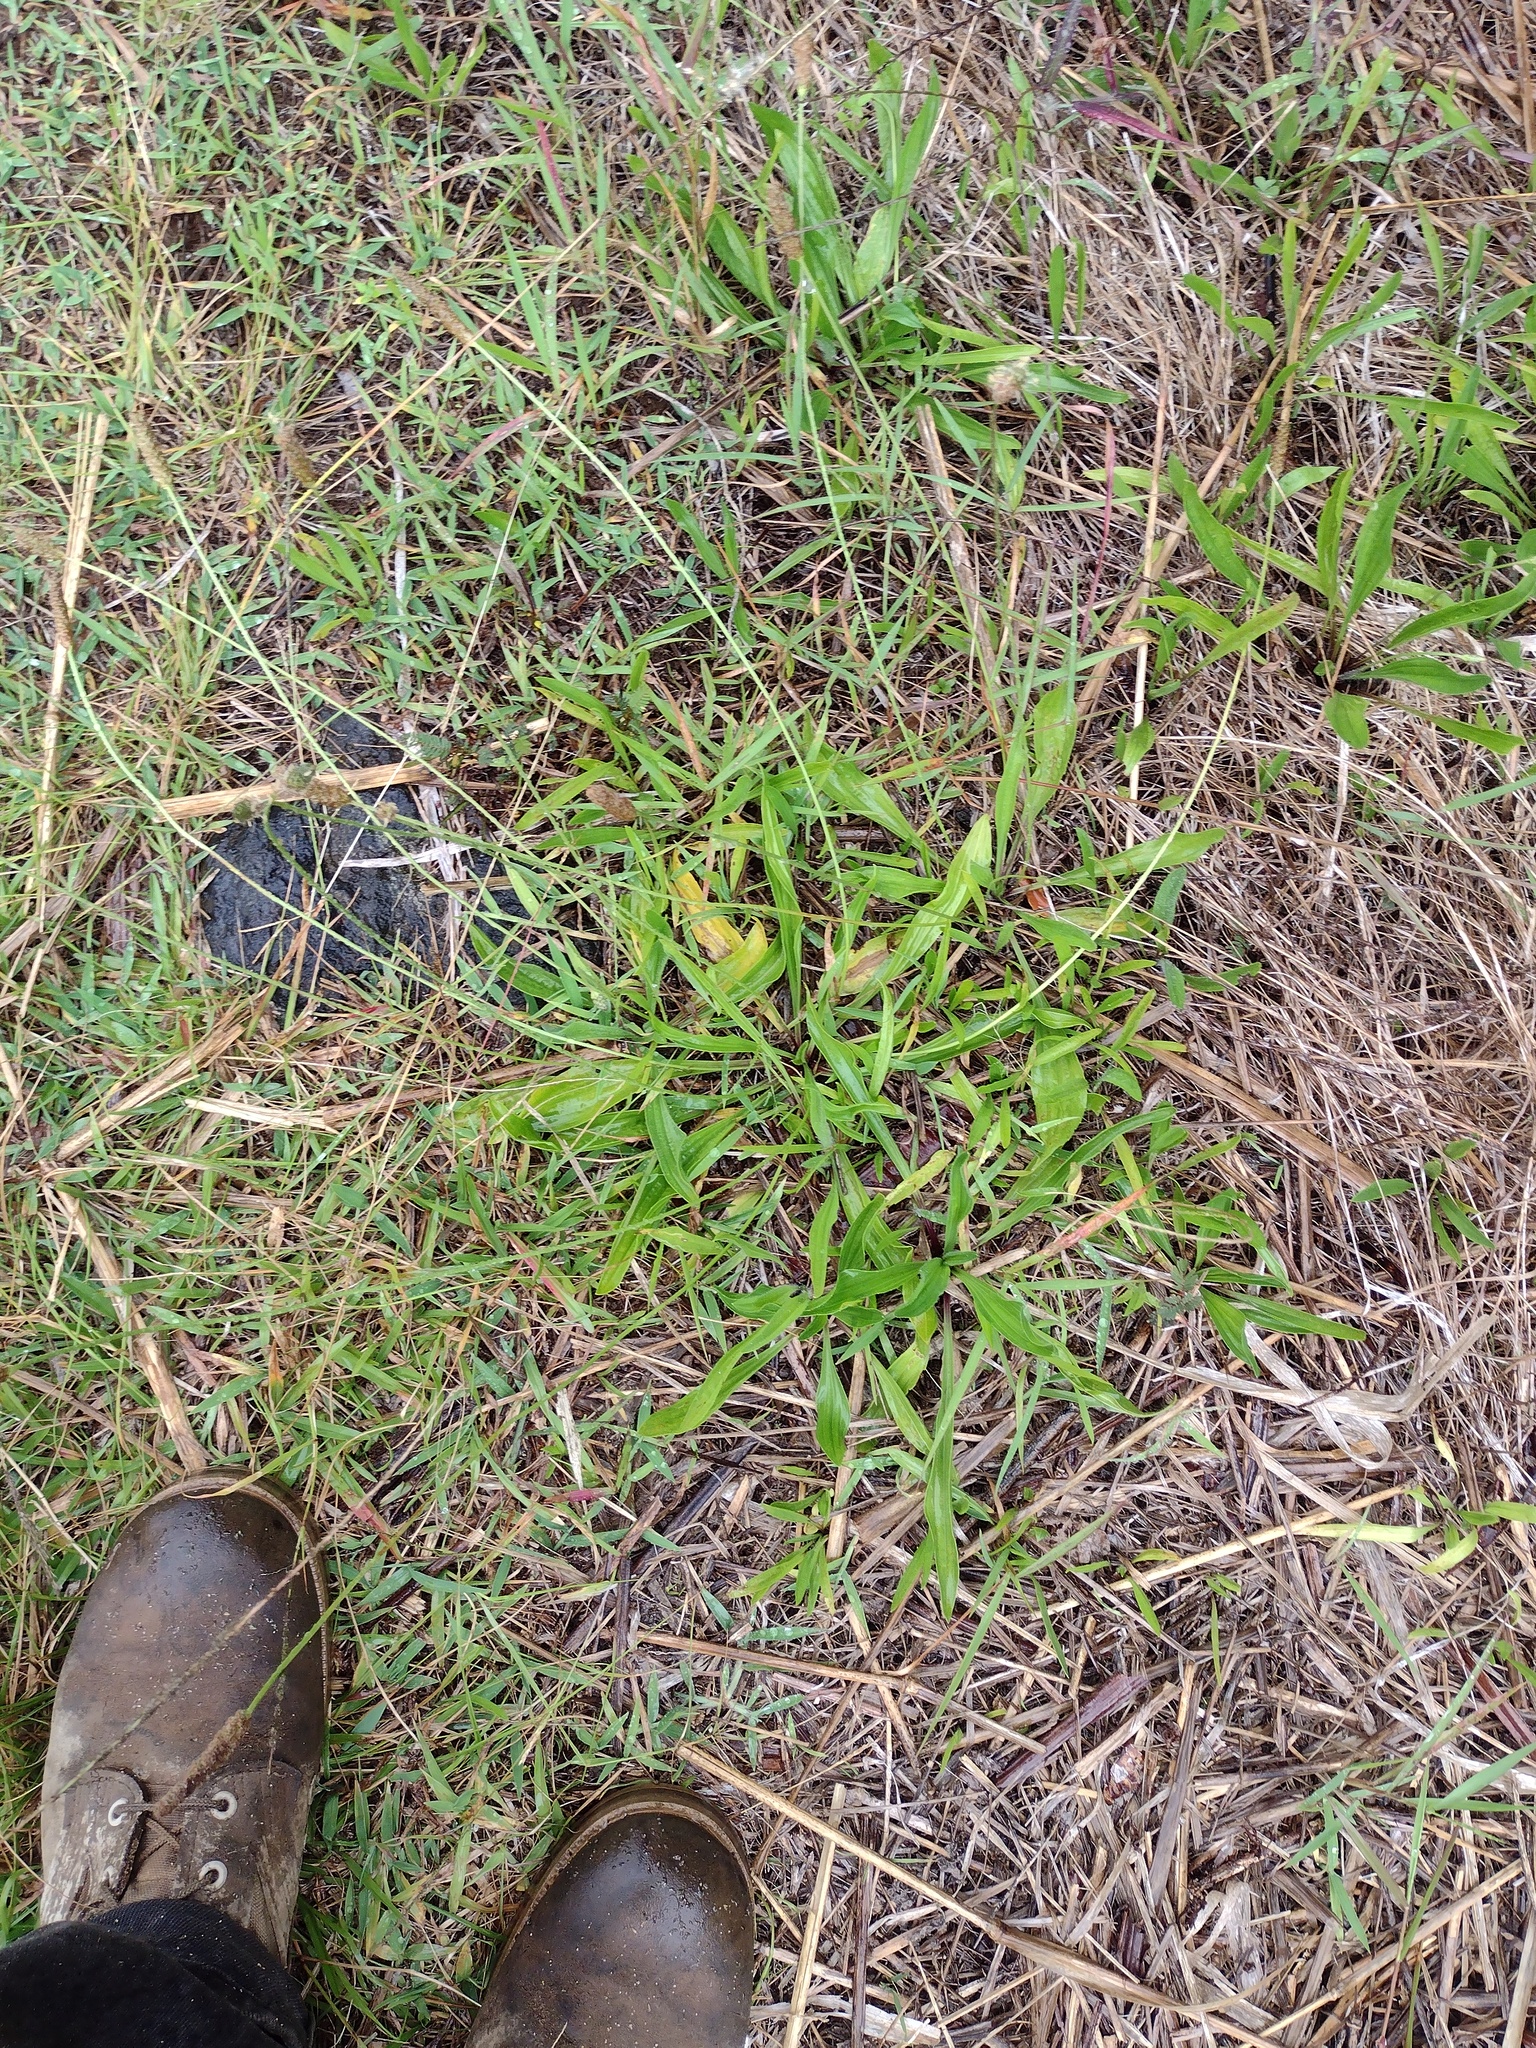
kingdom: Plantae
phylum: Tracheophyta
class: Magnoliopsida
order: Lamiales
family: Plantaginaceae
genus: Plantago
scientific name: Plantago lanceolata
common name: Ribwort plantain
